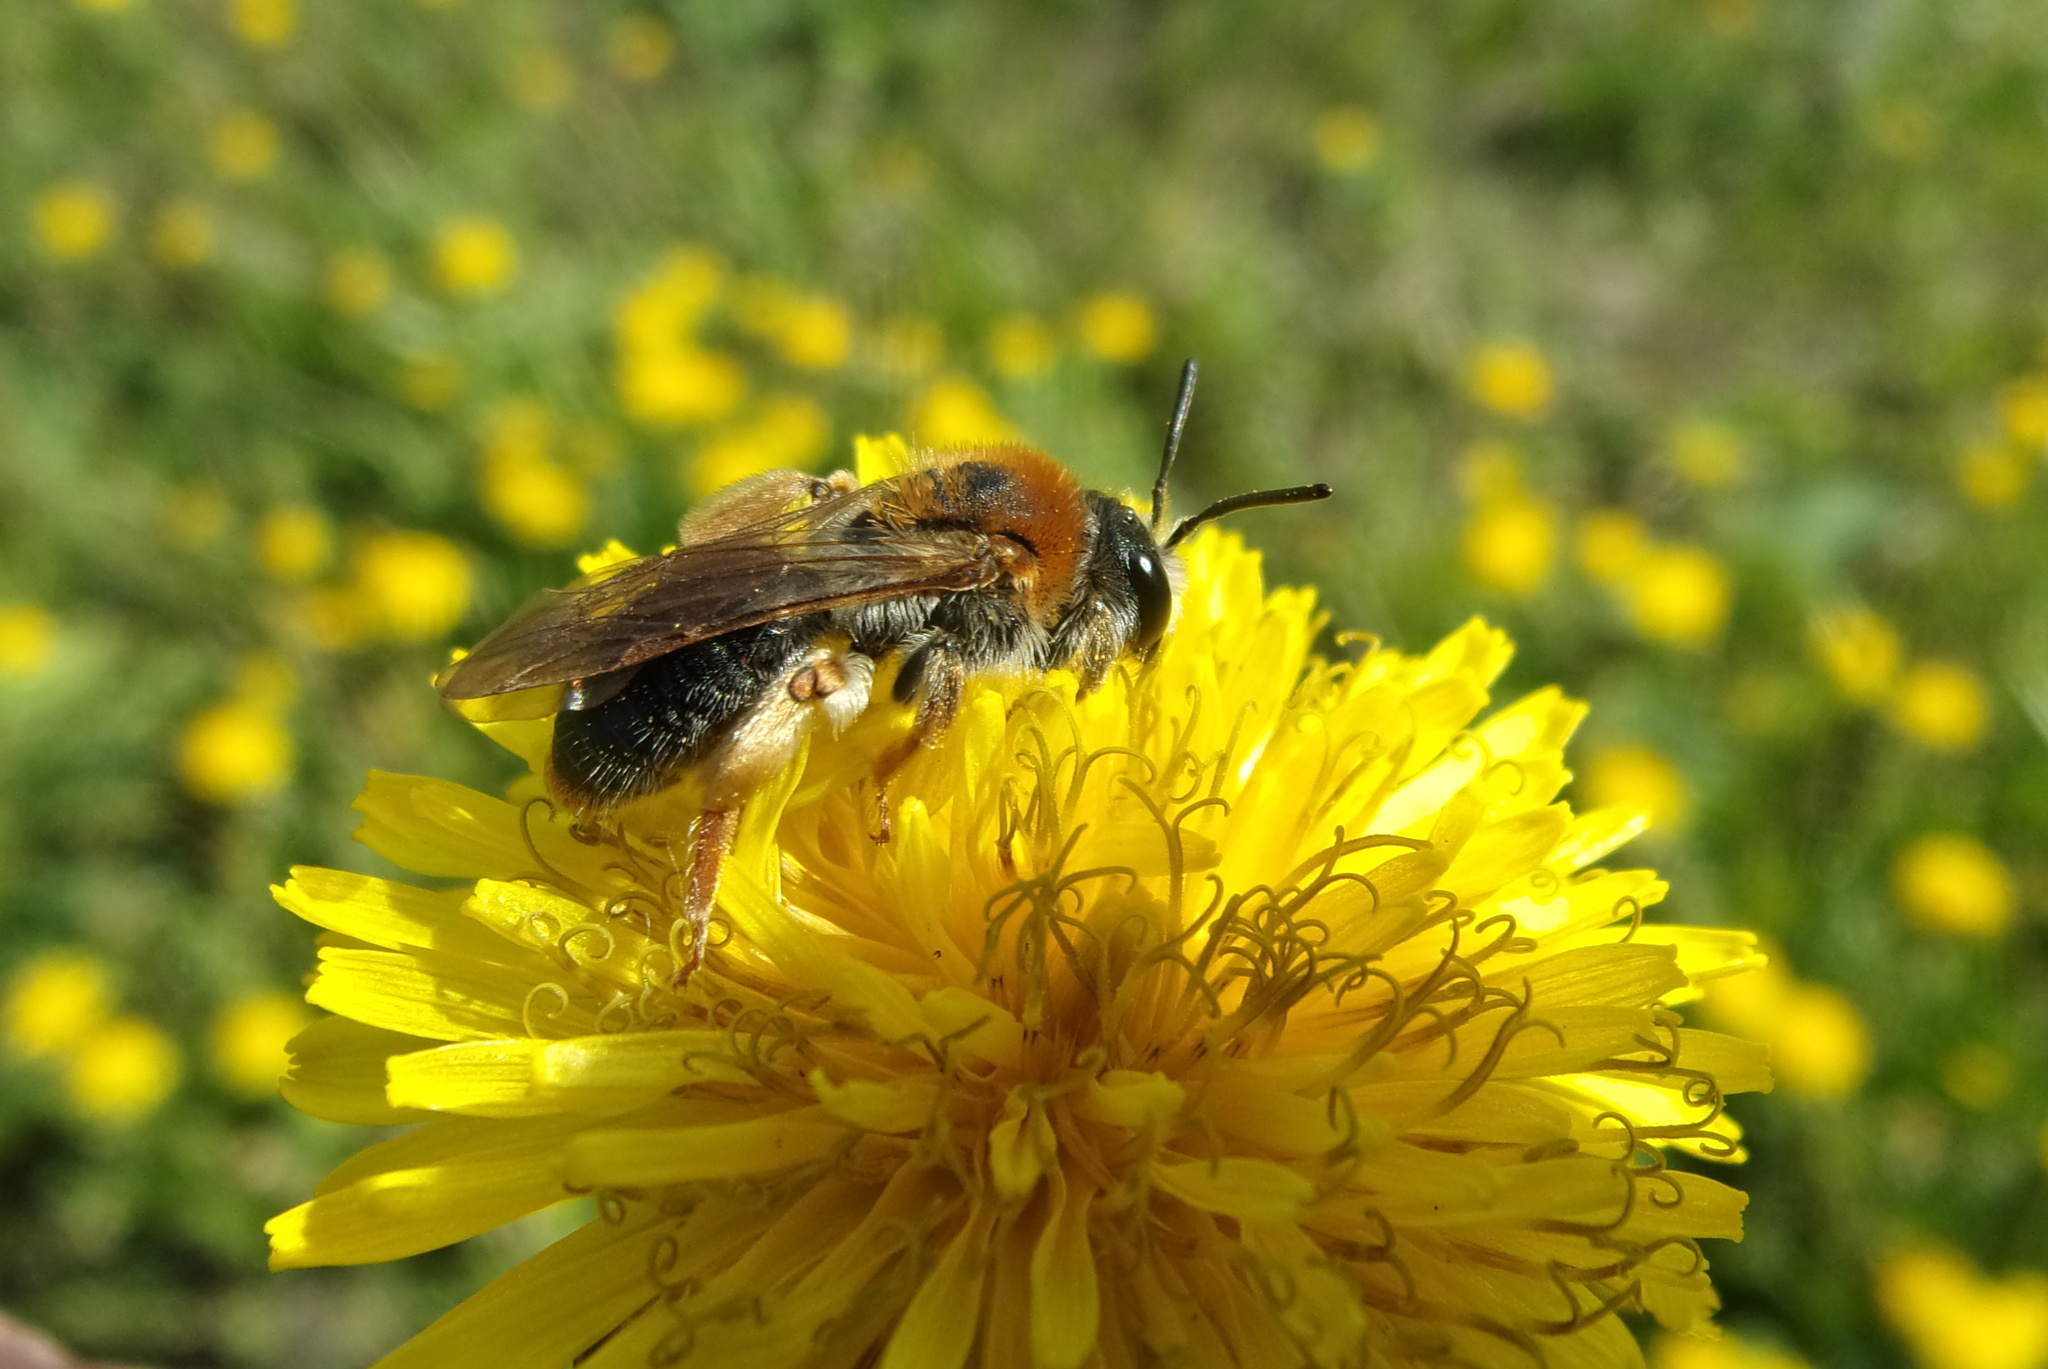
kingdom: Animalia
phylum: Arthropoda
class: Insecta
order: Hymenoptera
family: Andrenidae
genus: Andrena
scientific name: Andrena haemorrhoa
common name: Early mining bee
